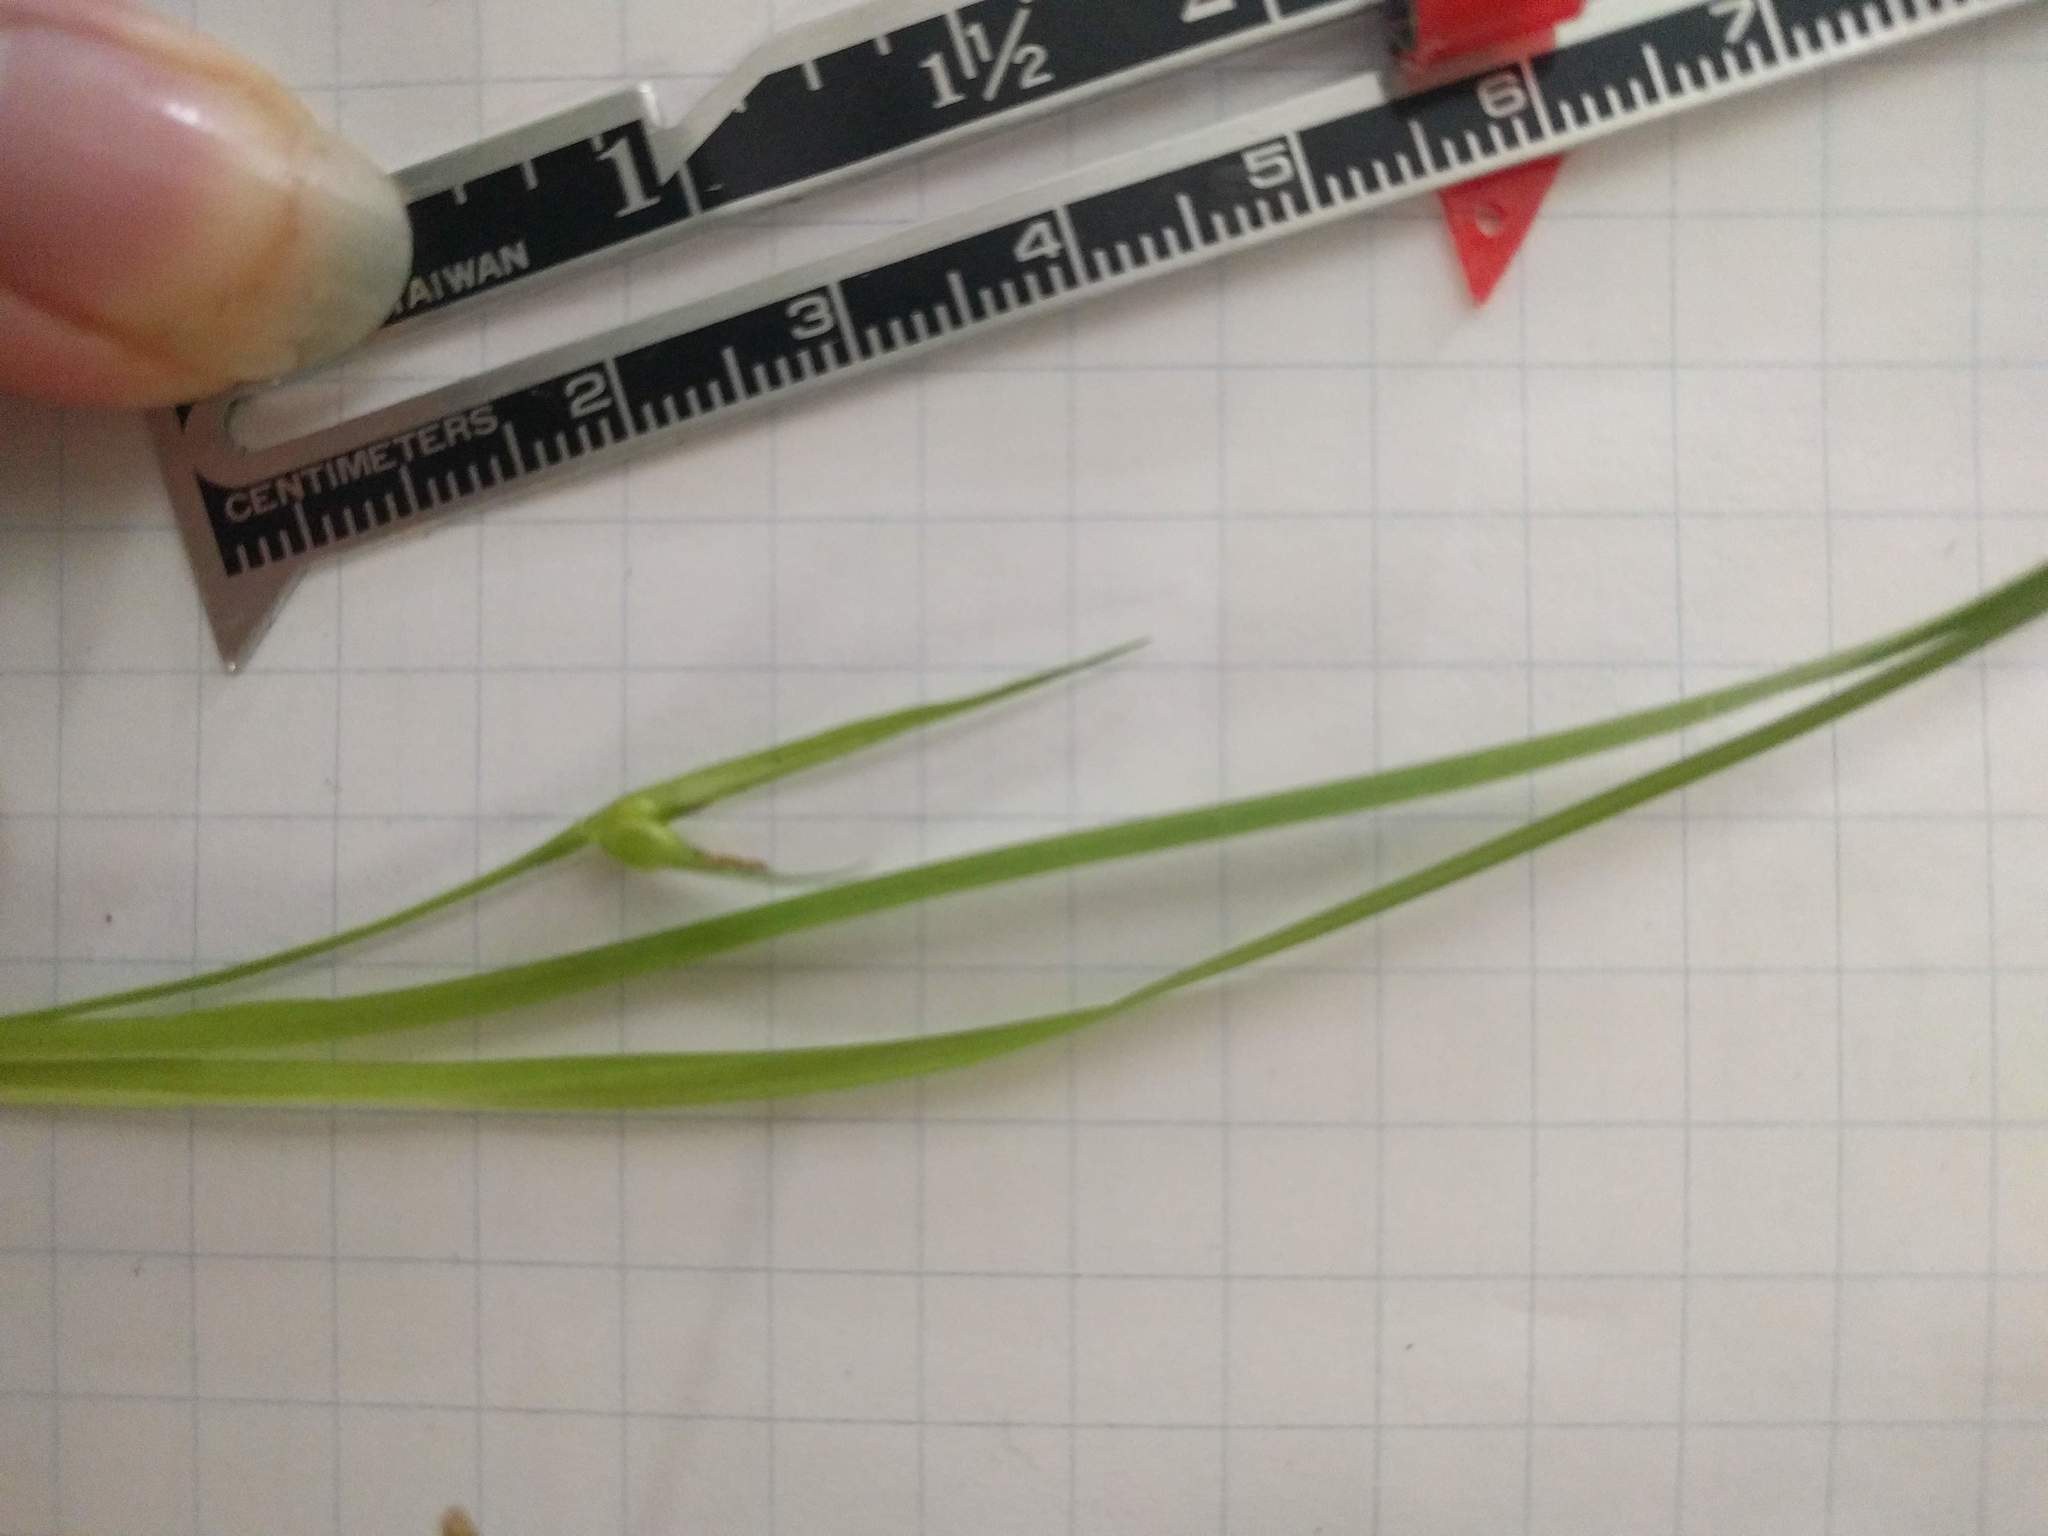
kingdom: Plantae
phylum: Tracheophyta
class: Liliopsida
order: Poales
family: Cyperaceae
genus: Carex
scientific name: Carex jamesii
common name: Grass sedge
